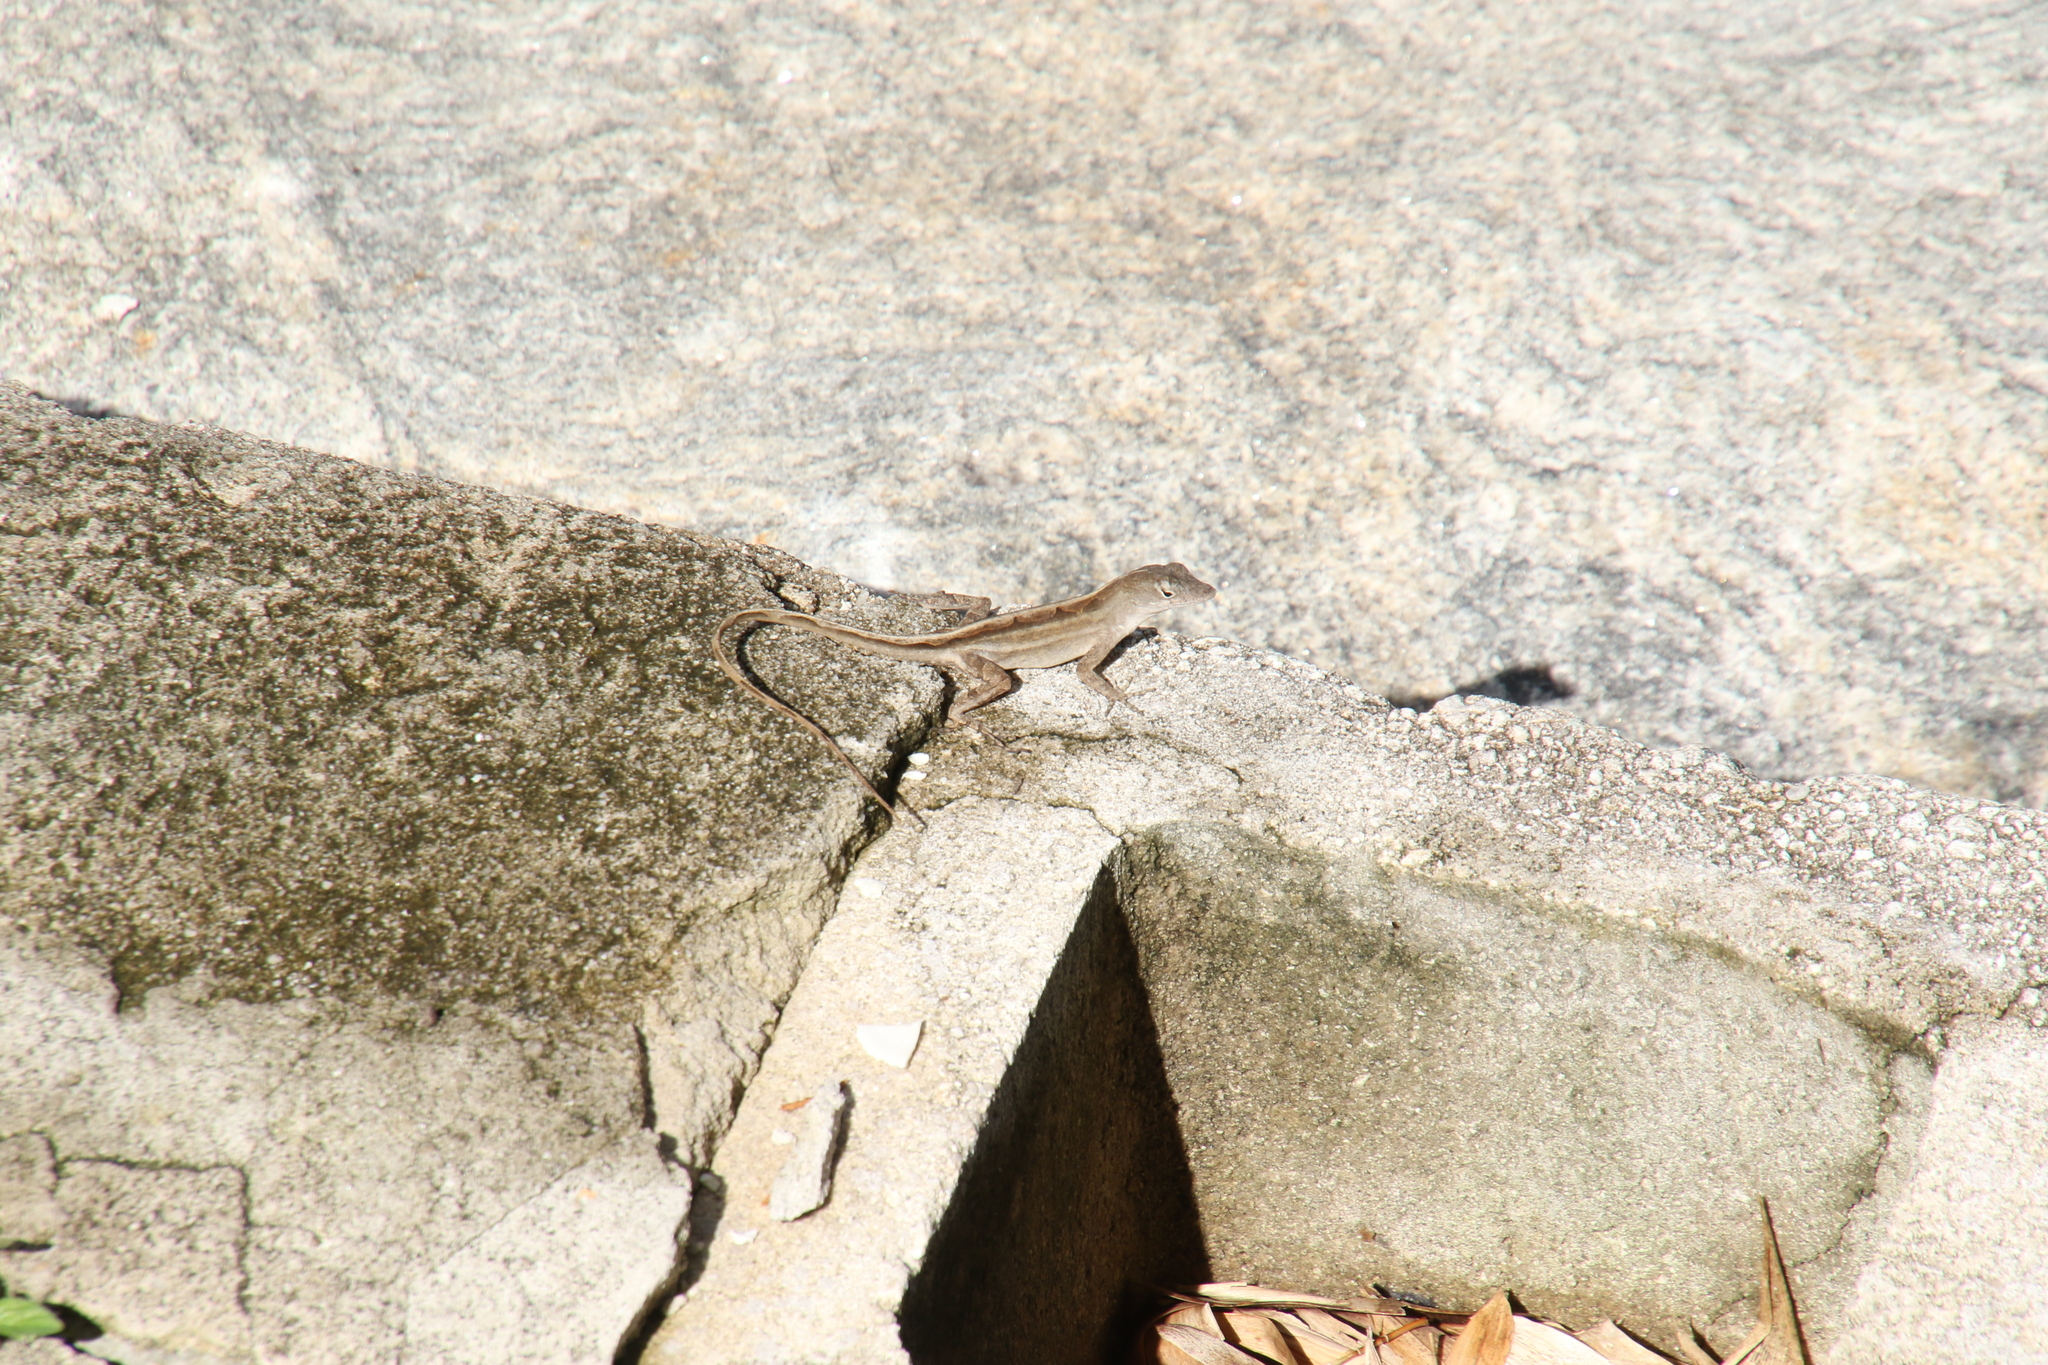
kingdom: Animalia
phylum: Chordata
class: Squamata
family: Dactyloidae
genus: Anolis
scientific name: Anolis sagrei
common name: Brown anole
